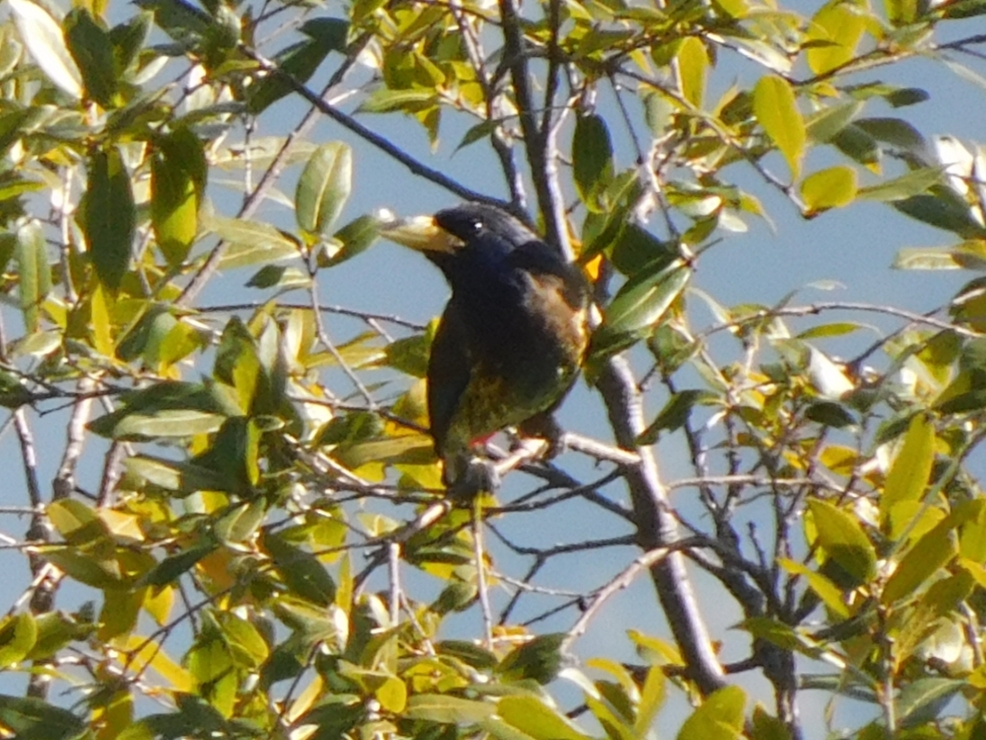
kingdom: Animalia
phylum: Chordata
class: Aves
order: Piciformes
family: Megalaimidae
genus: Psilopogon
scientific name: Psilopogon virens
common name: Great barbet
